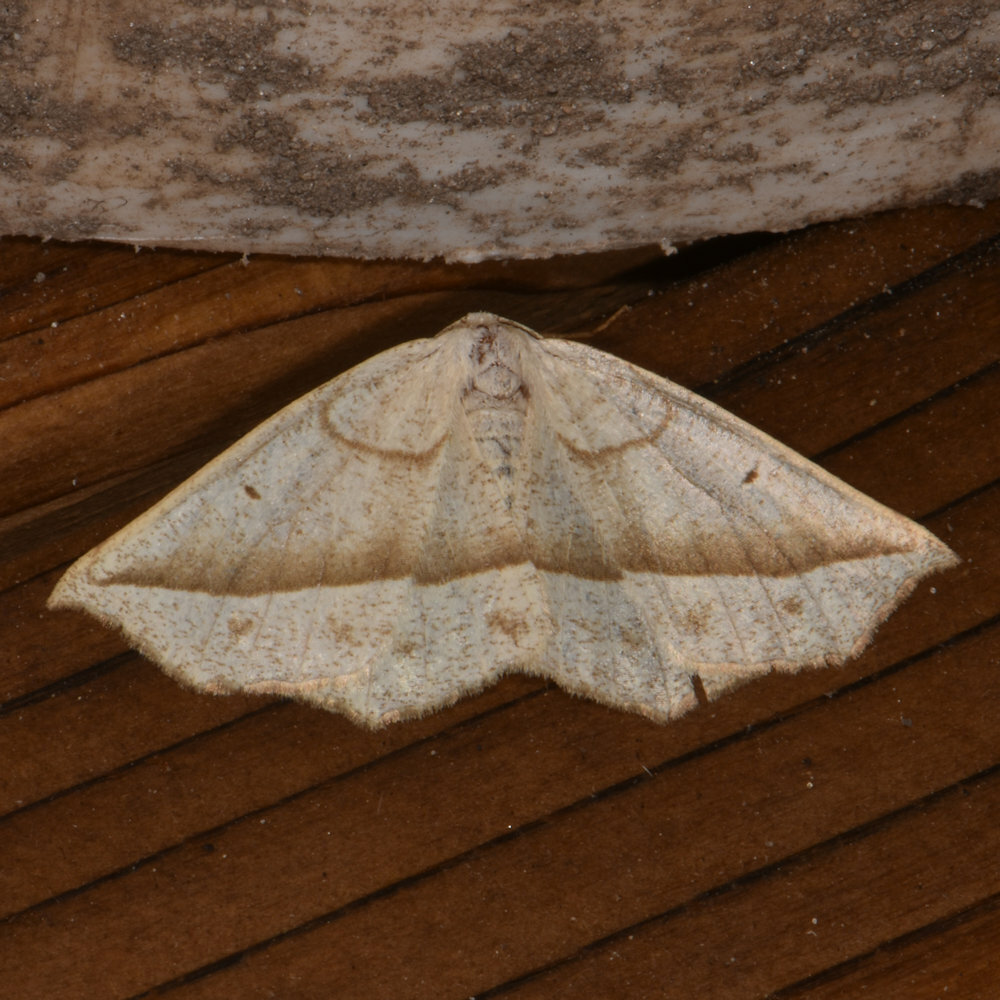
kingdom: Animalia
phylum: Arthropoda
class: Insecta
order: Lepidoptera
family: Geometridae
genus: Eusarca
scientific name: Eusarca confusaria
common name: Confused eusarca
